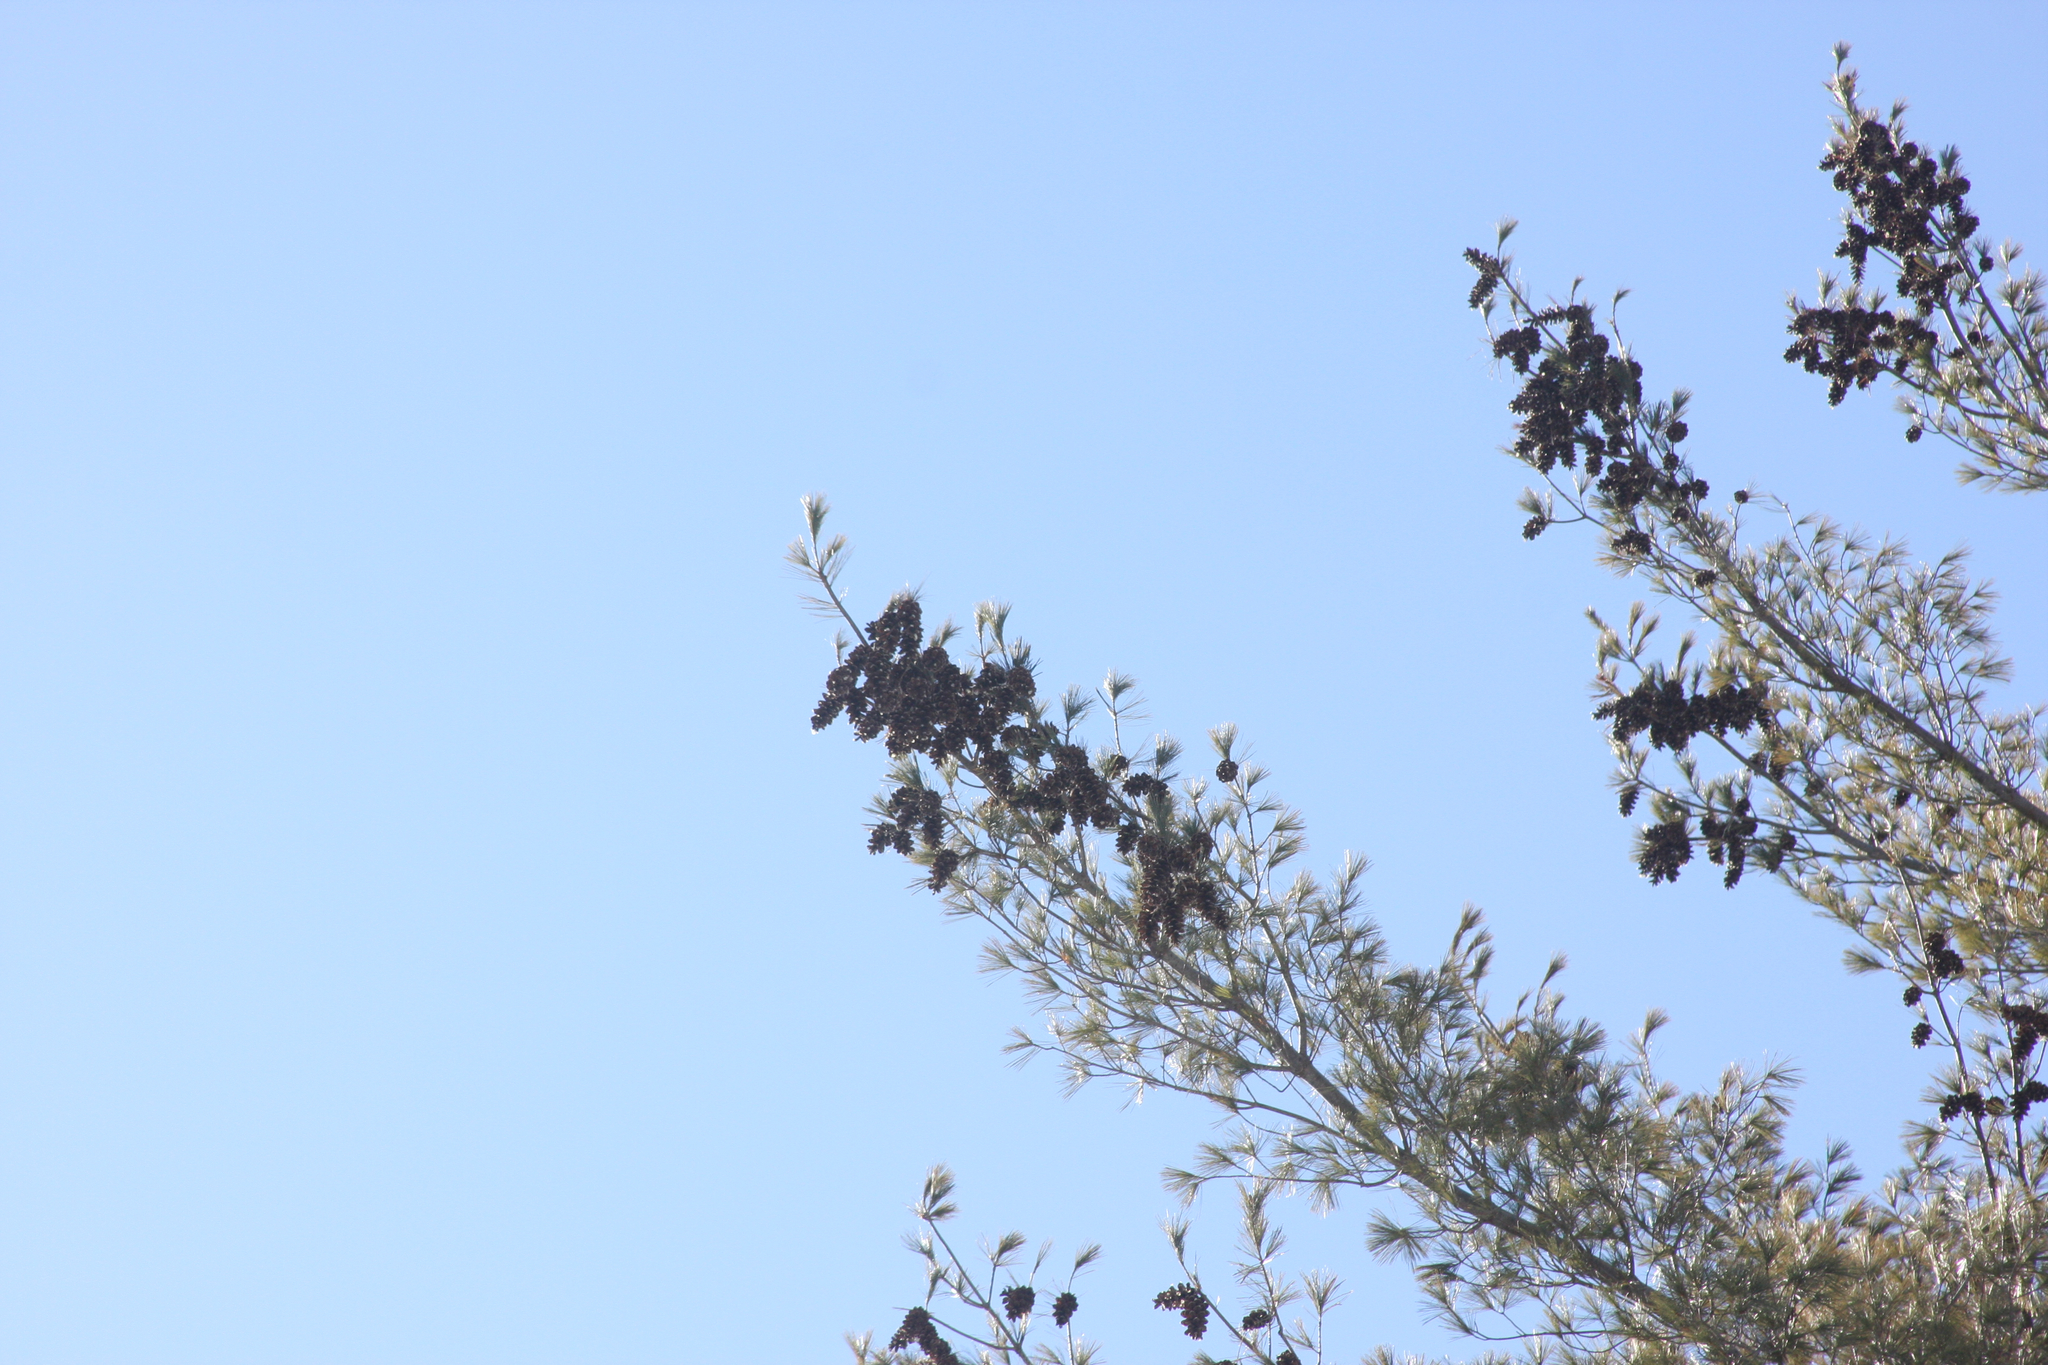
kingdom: Plantae
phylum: Tracheophyta
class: Pinopsida
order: Pinales
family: Pinaceae
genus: Pinus
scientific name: Pinus strobus
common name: Weymouth pine
